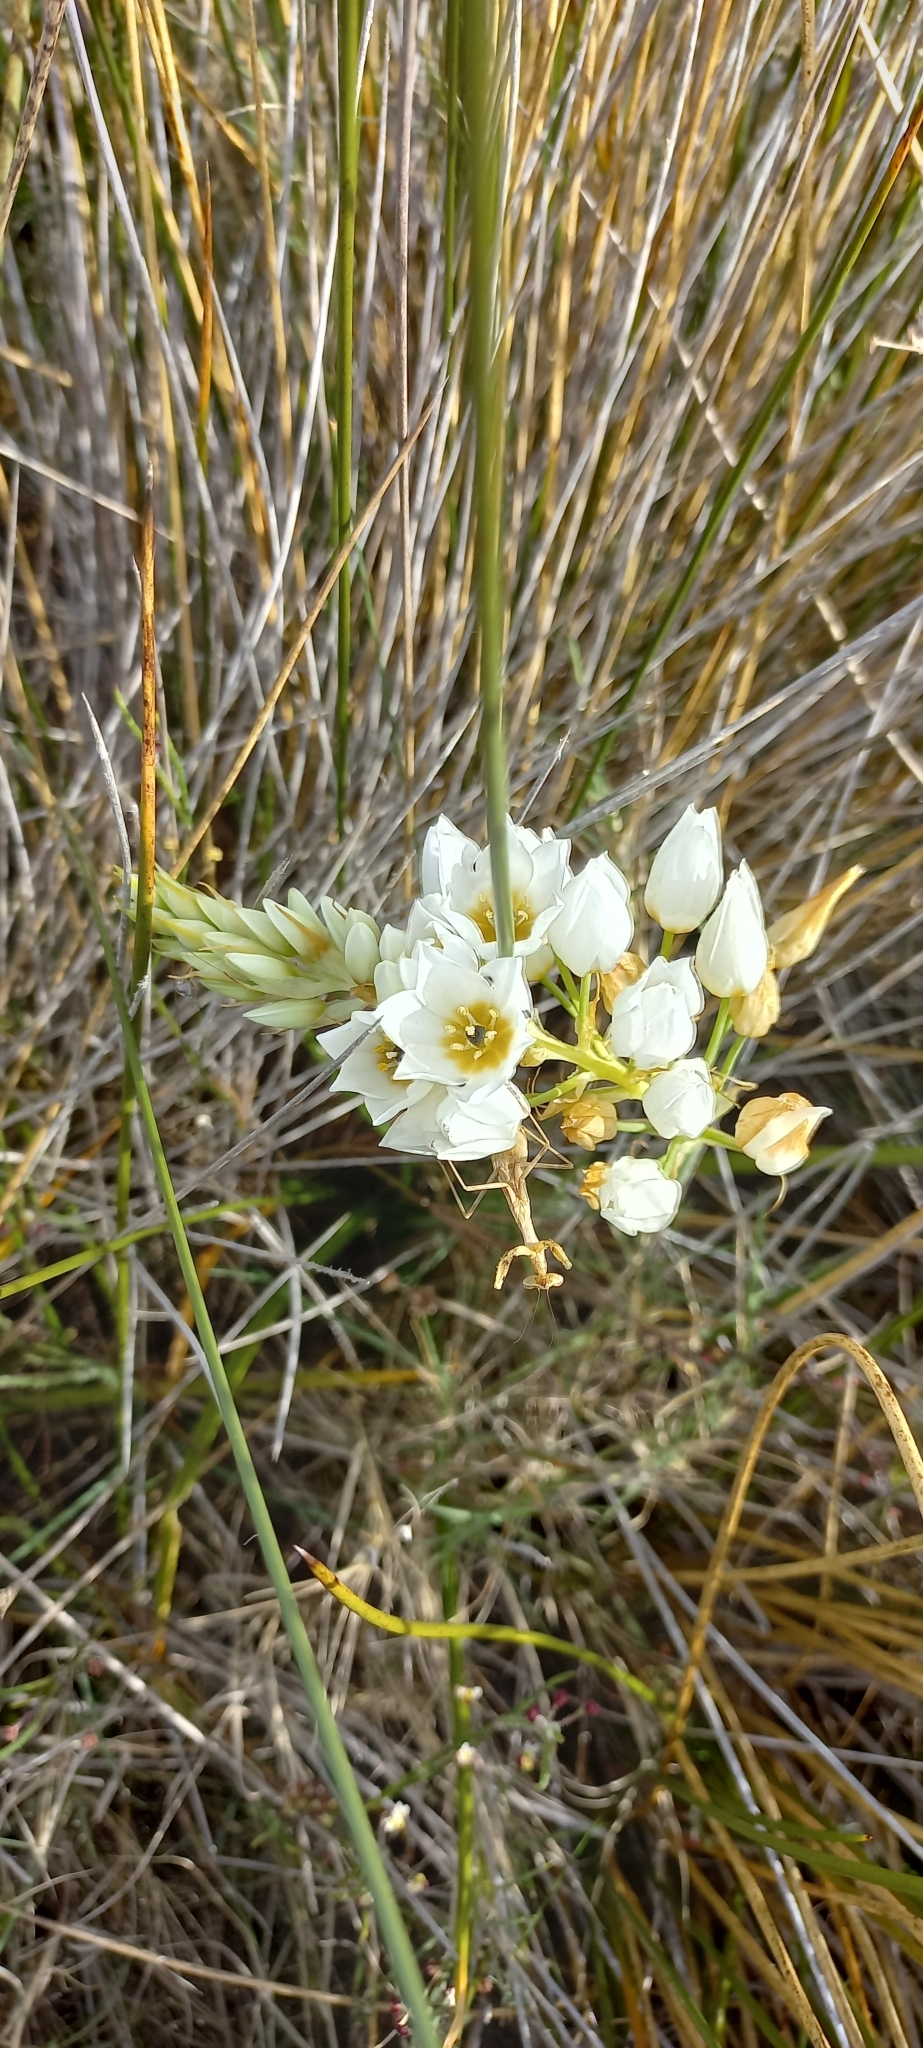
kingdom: Plantae
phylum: Tracheophyta
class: Liliopsida
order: Asparagales
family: Asparagaceae
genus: Ornithogalum
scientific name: Ornithogalum thyrsoides
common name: Chincherinchee
